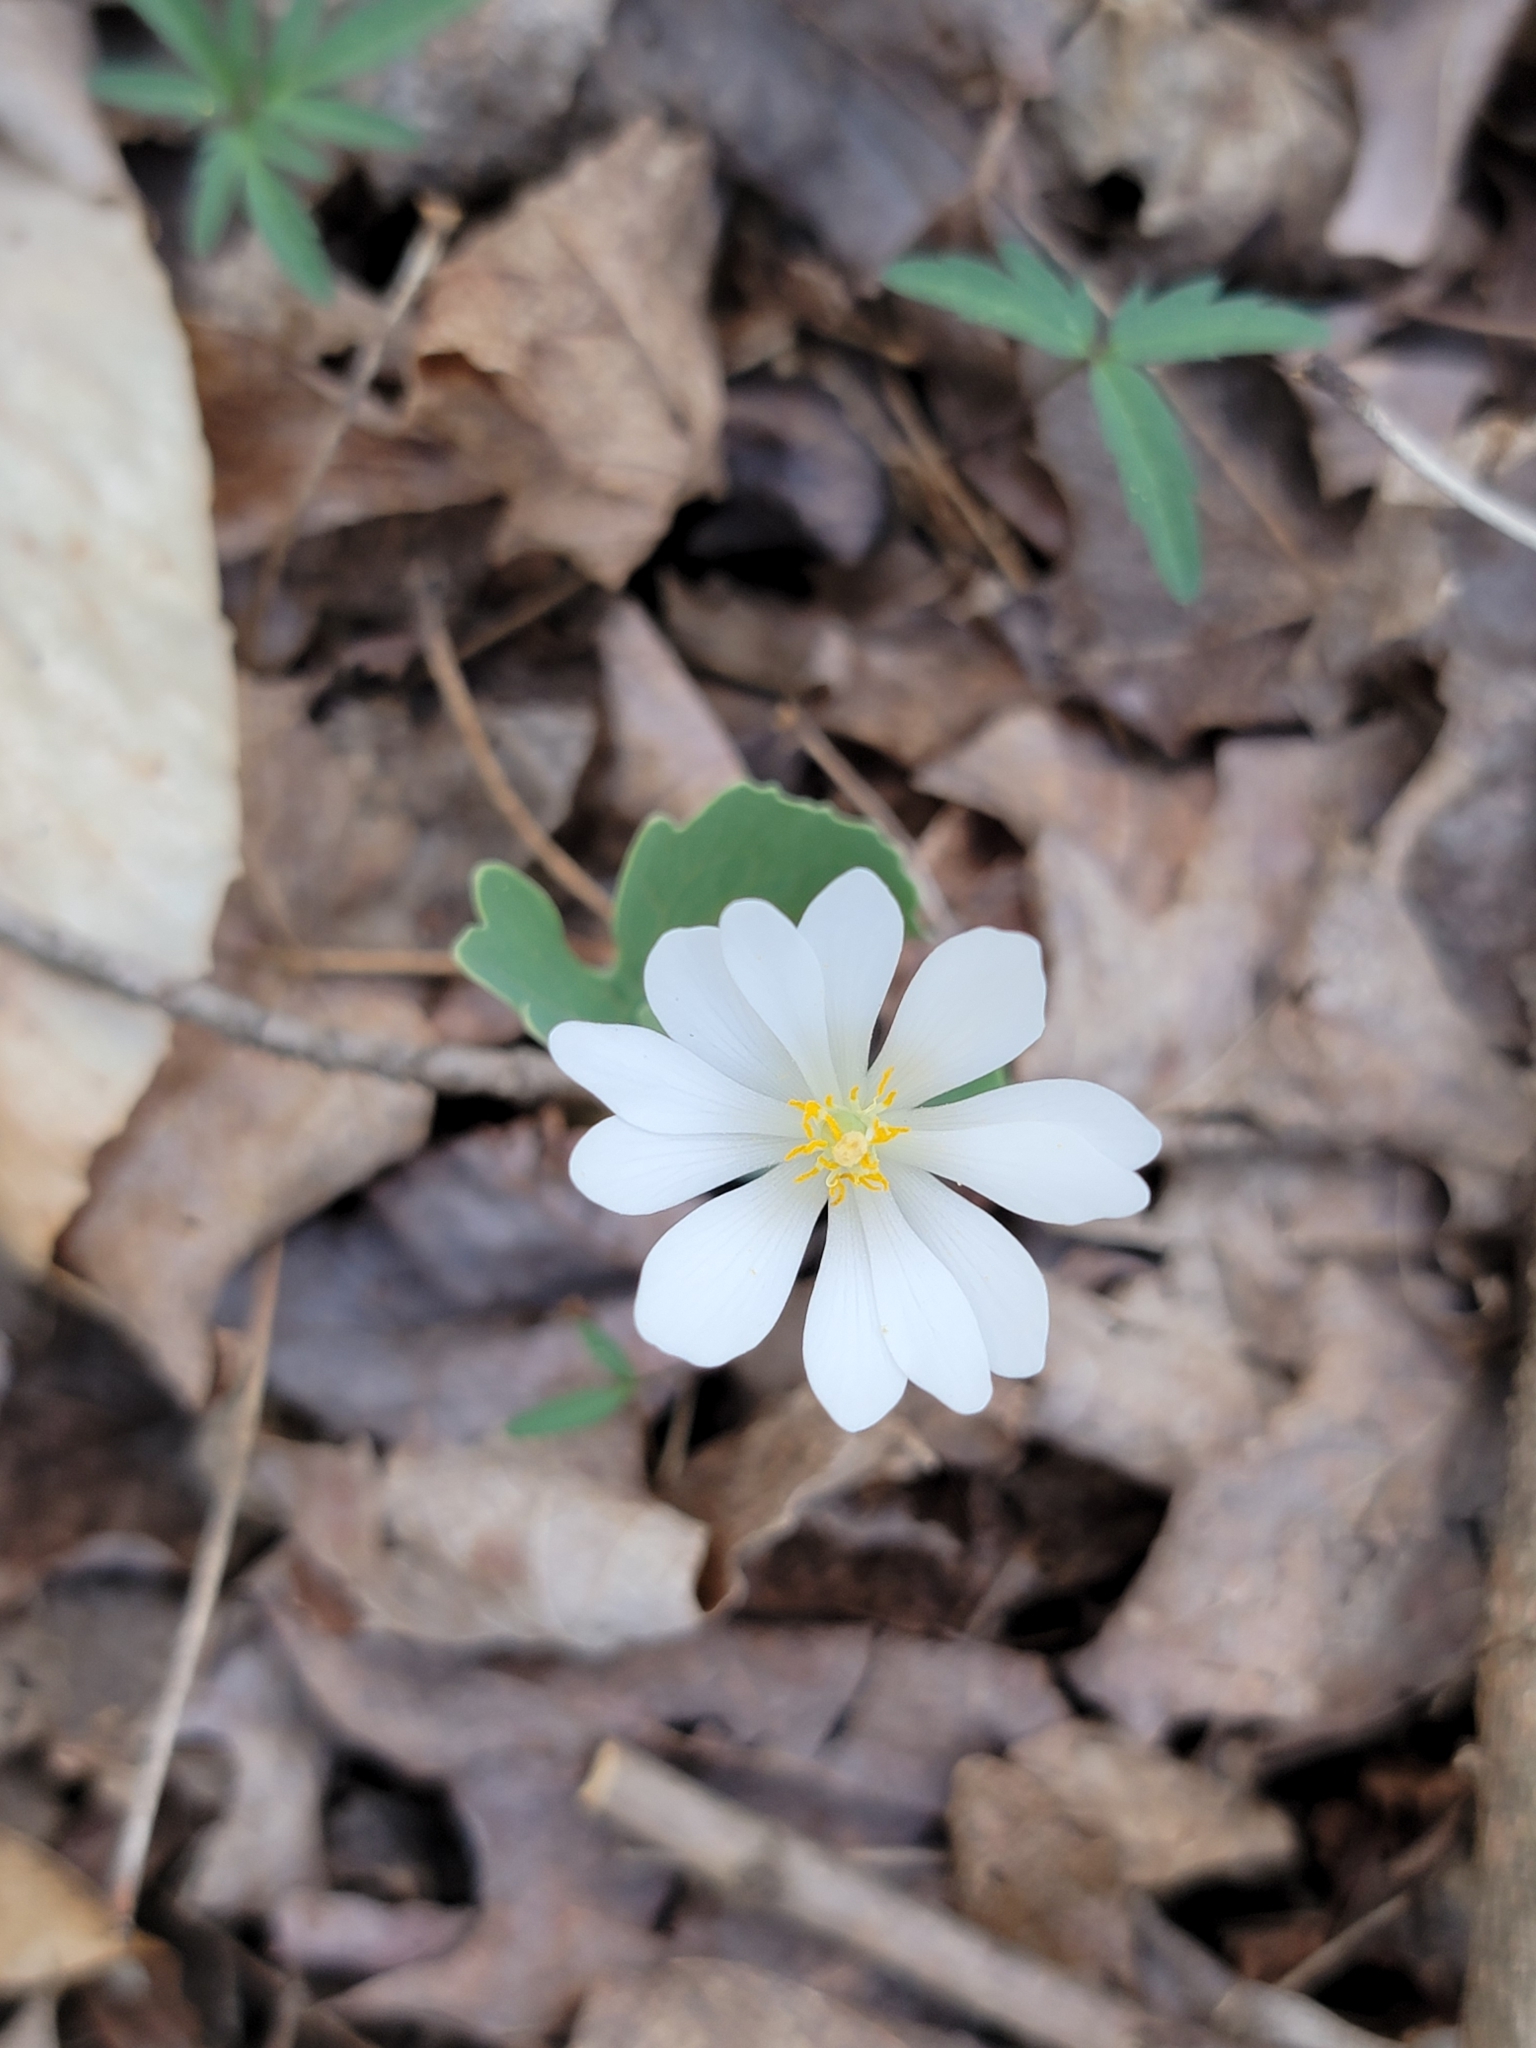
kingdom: Plantae
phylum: Tracheophyta
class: Magnoliopsida
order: Ranunculales
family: Papaveraceae
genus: Sanguinaria
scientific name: Sanguinaria canadensis
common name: Bloodroot
